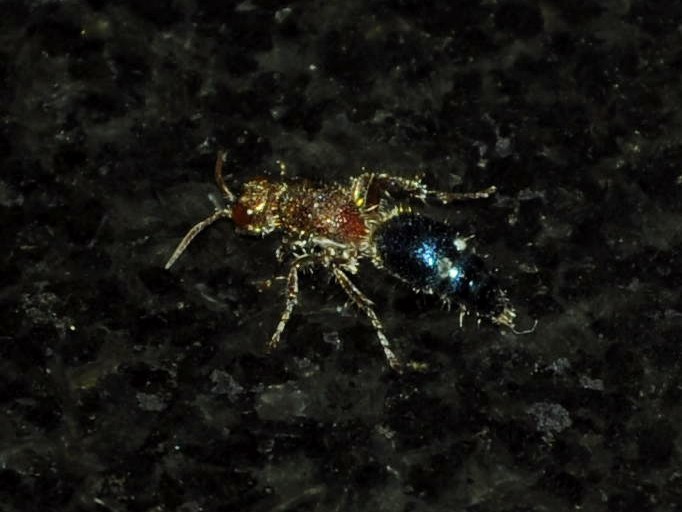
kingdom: Animalia
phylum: Arthropoda
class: Insecta
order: Hymenoptera
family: Mutillidae
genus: Ephucilla
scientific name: Ephucilla
